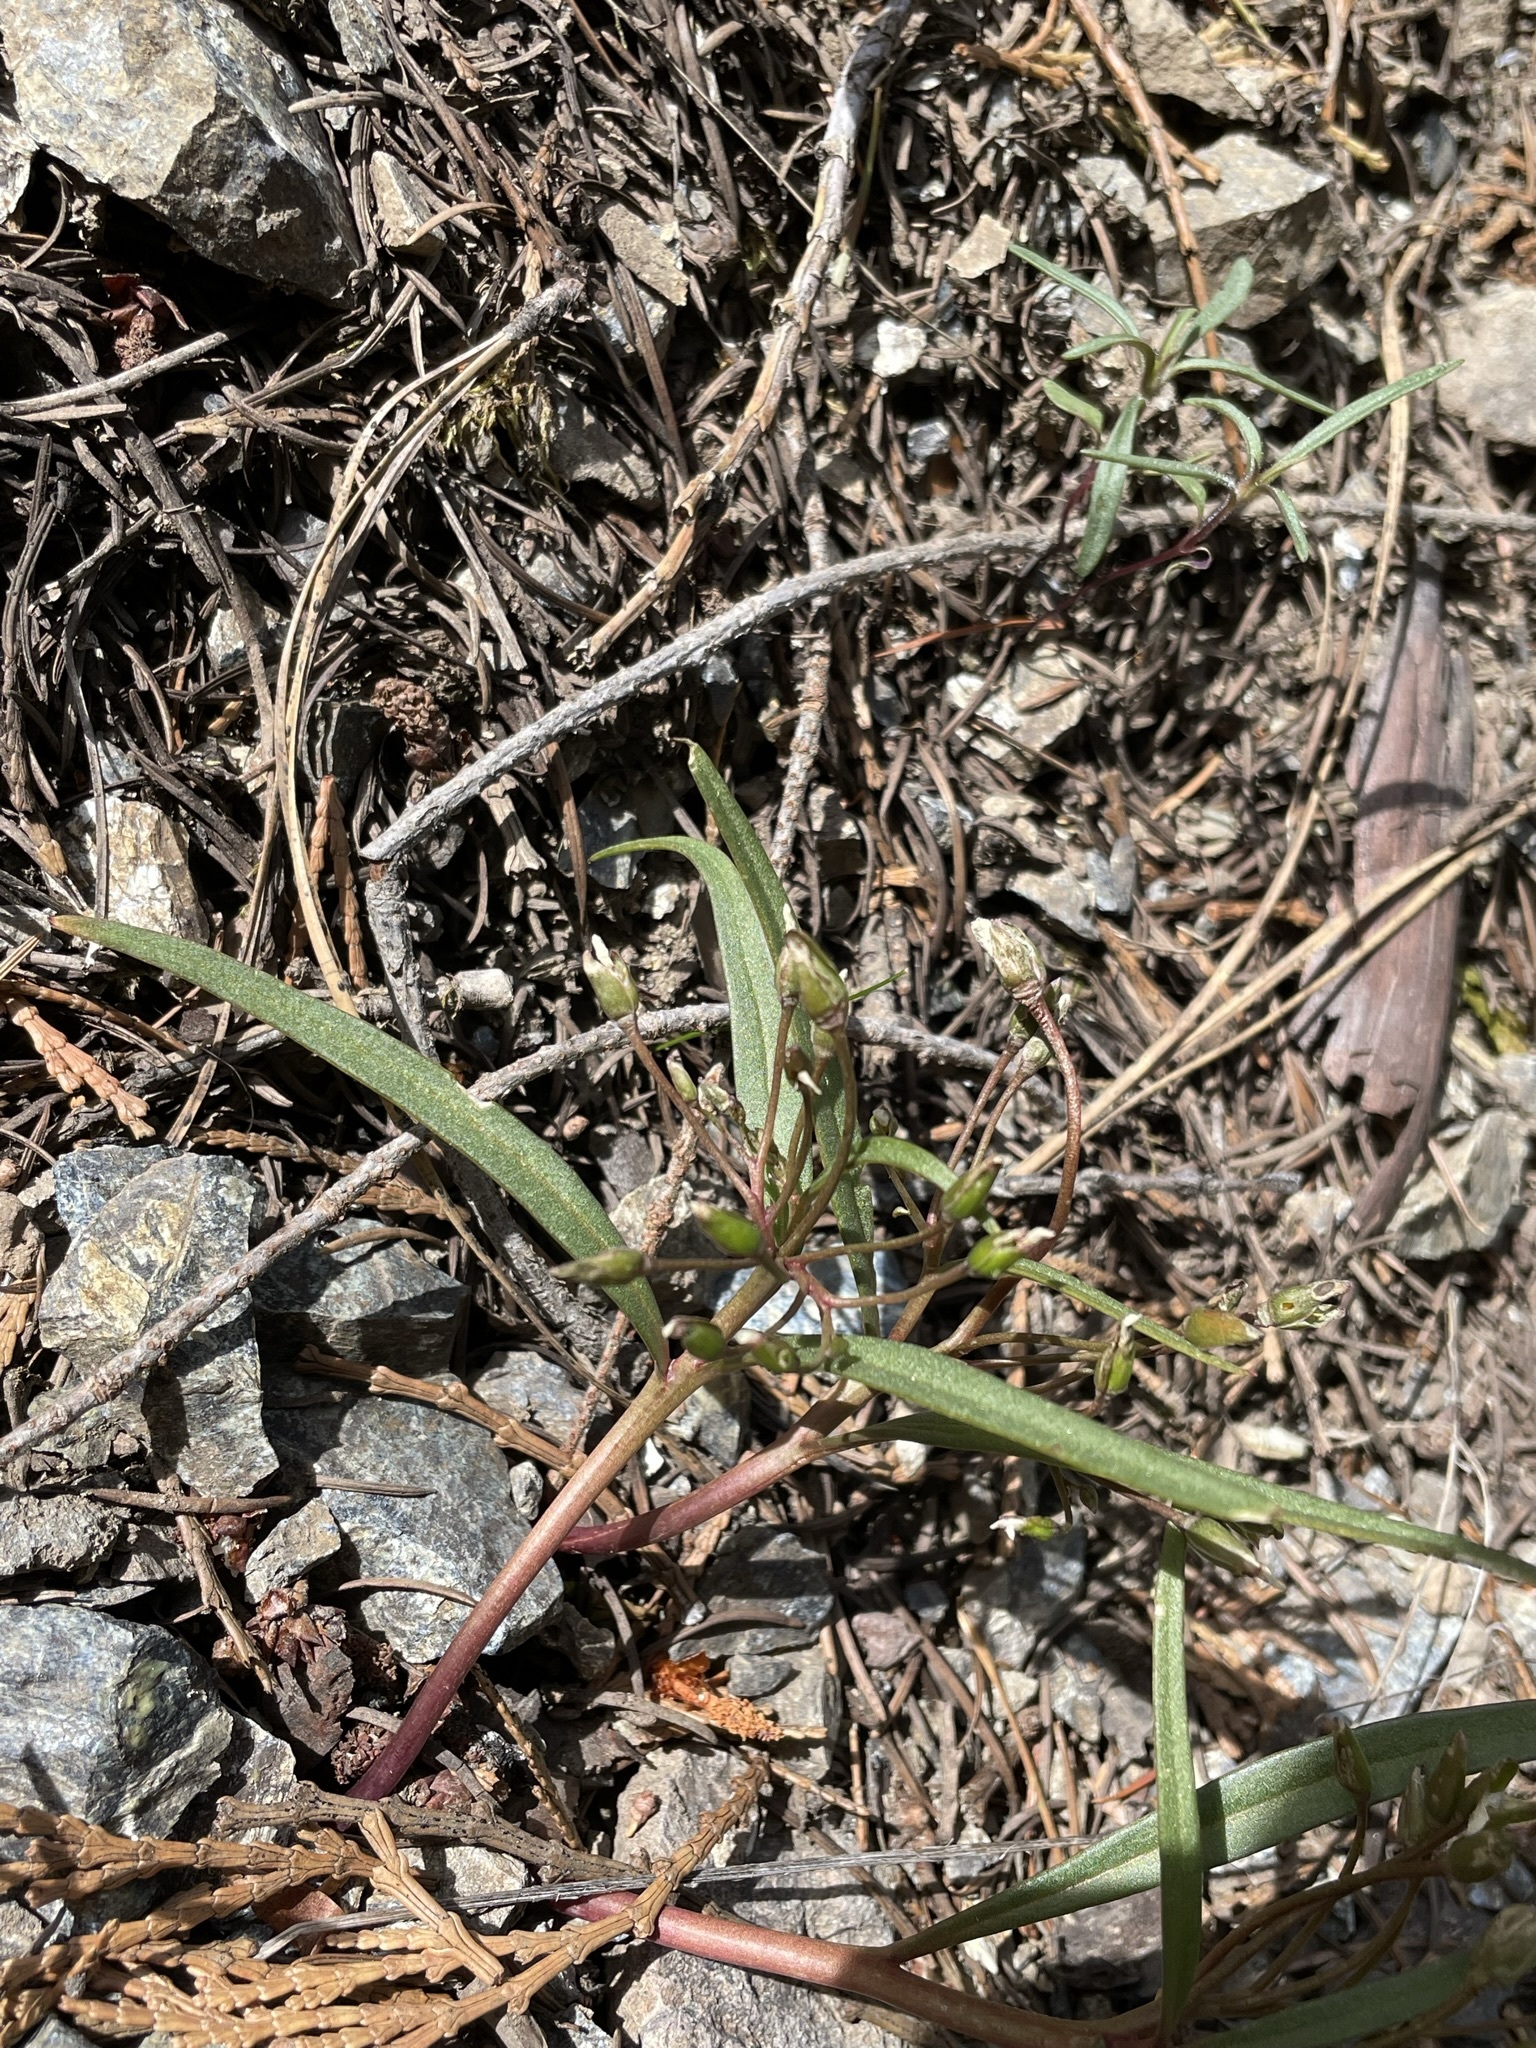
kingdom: Plantae
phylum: Tracheophyta
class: Magnoliopsida
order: Caryophyllales
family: Montiaceae
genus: Claytonia
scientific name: Claytonia serpenticola
